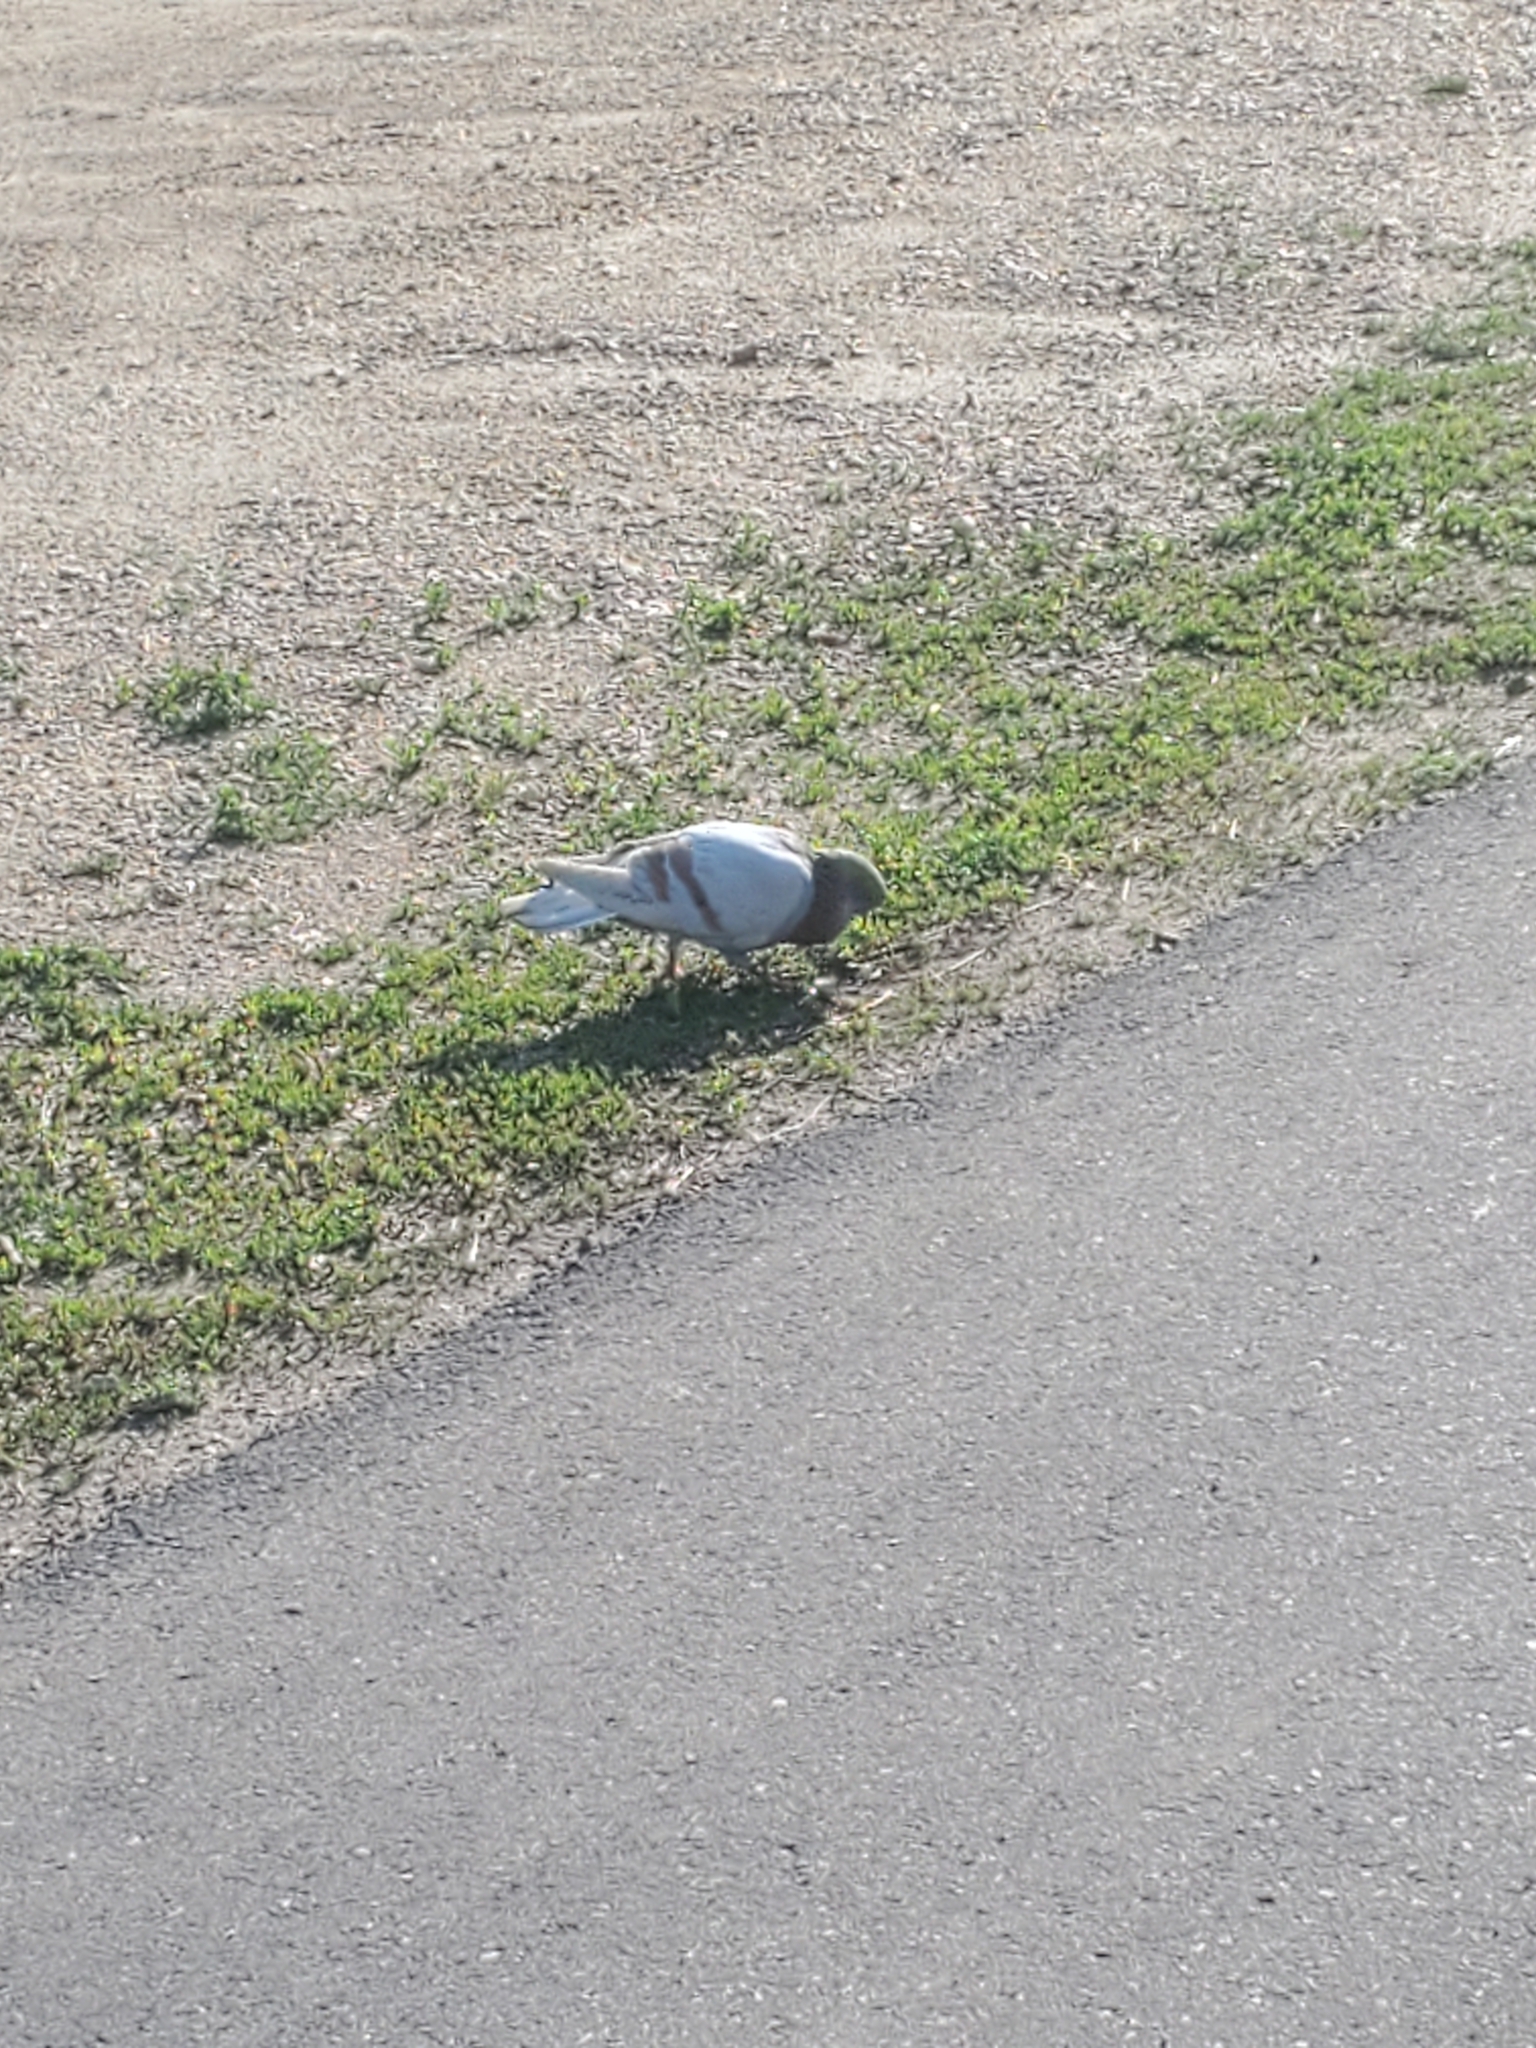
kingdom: Animalia
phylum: Chordata
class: Aves
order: Columbiformes
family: Columbidae
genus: Columba
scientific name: Columba livia
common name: Rock pigeon
